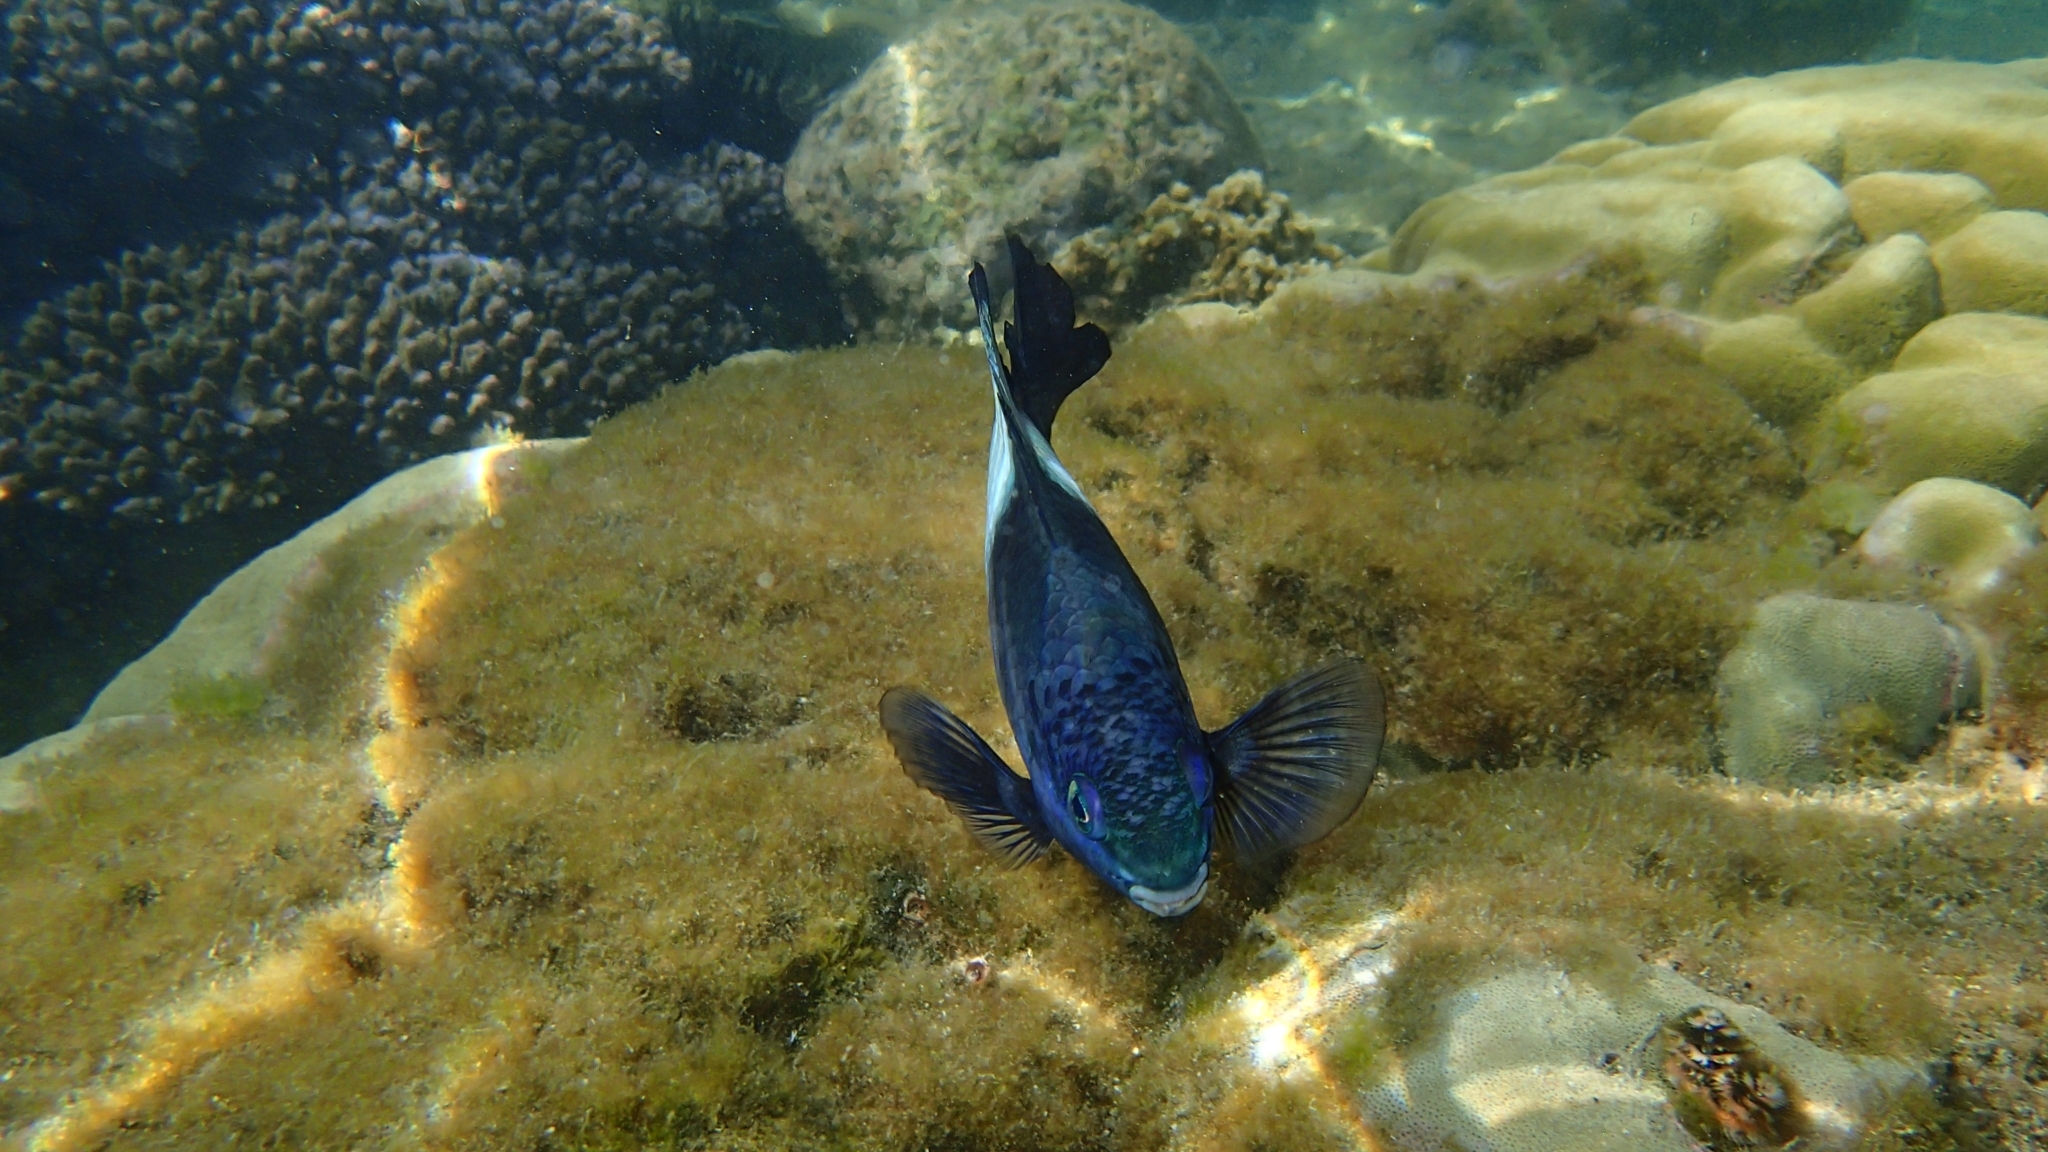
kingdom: Animalia
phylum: Chordata
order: Perciformes
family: Pomacentridae
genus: Stegastes
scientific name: Stegastes nigricans
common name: Dusky gregory
